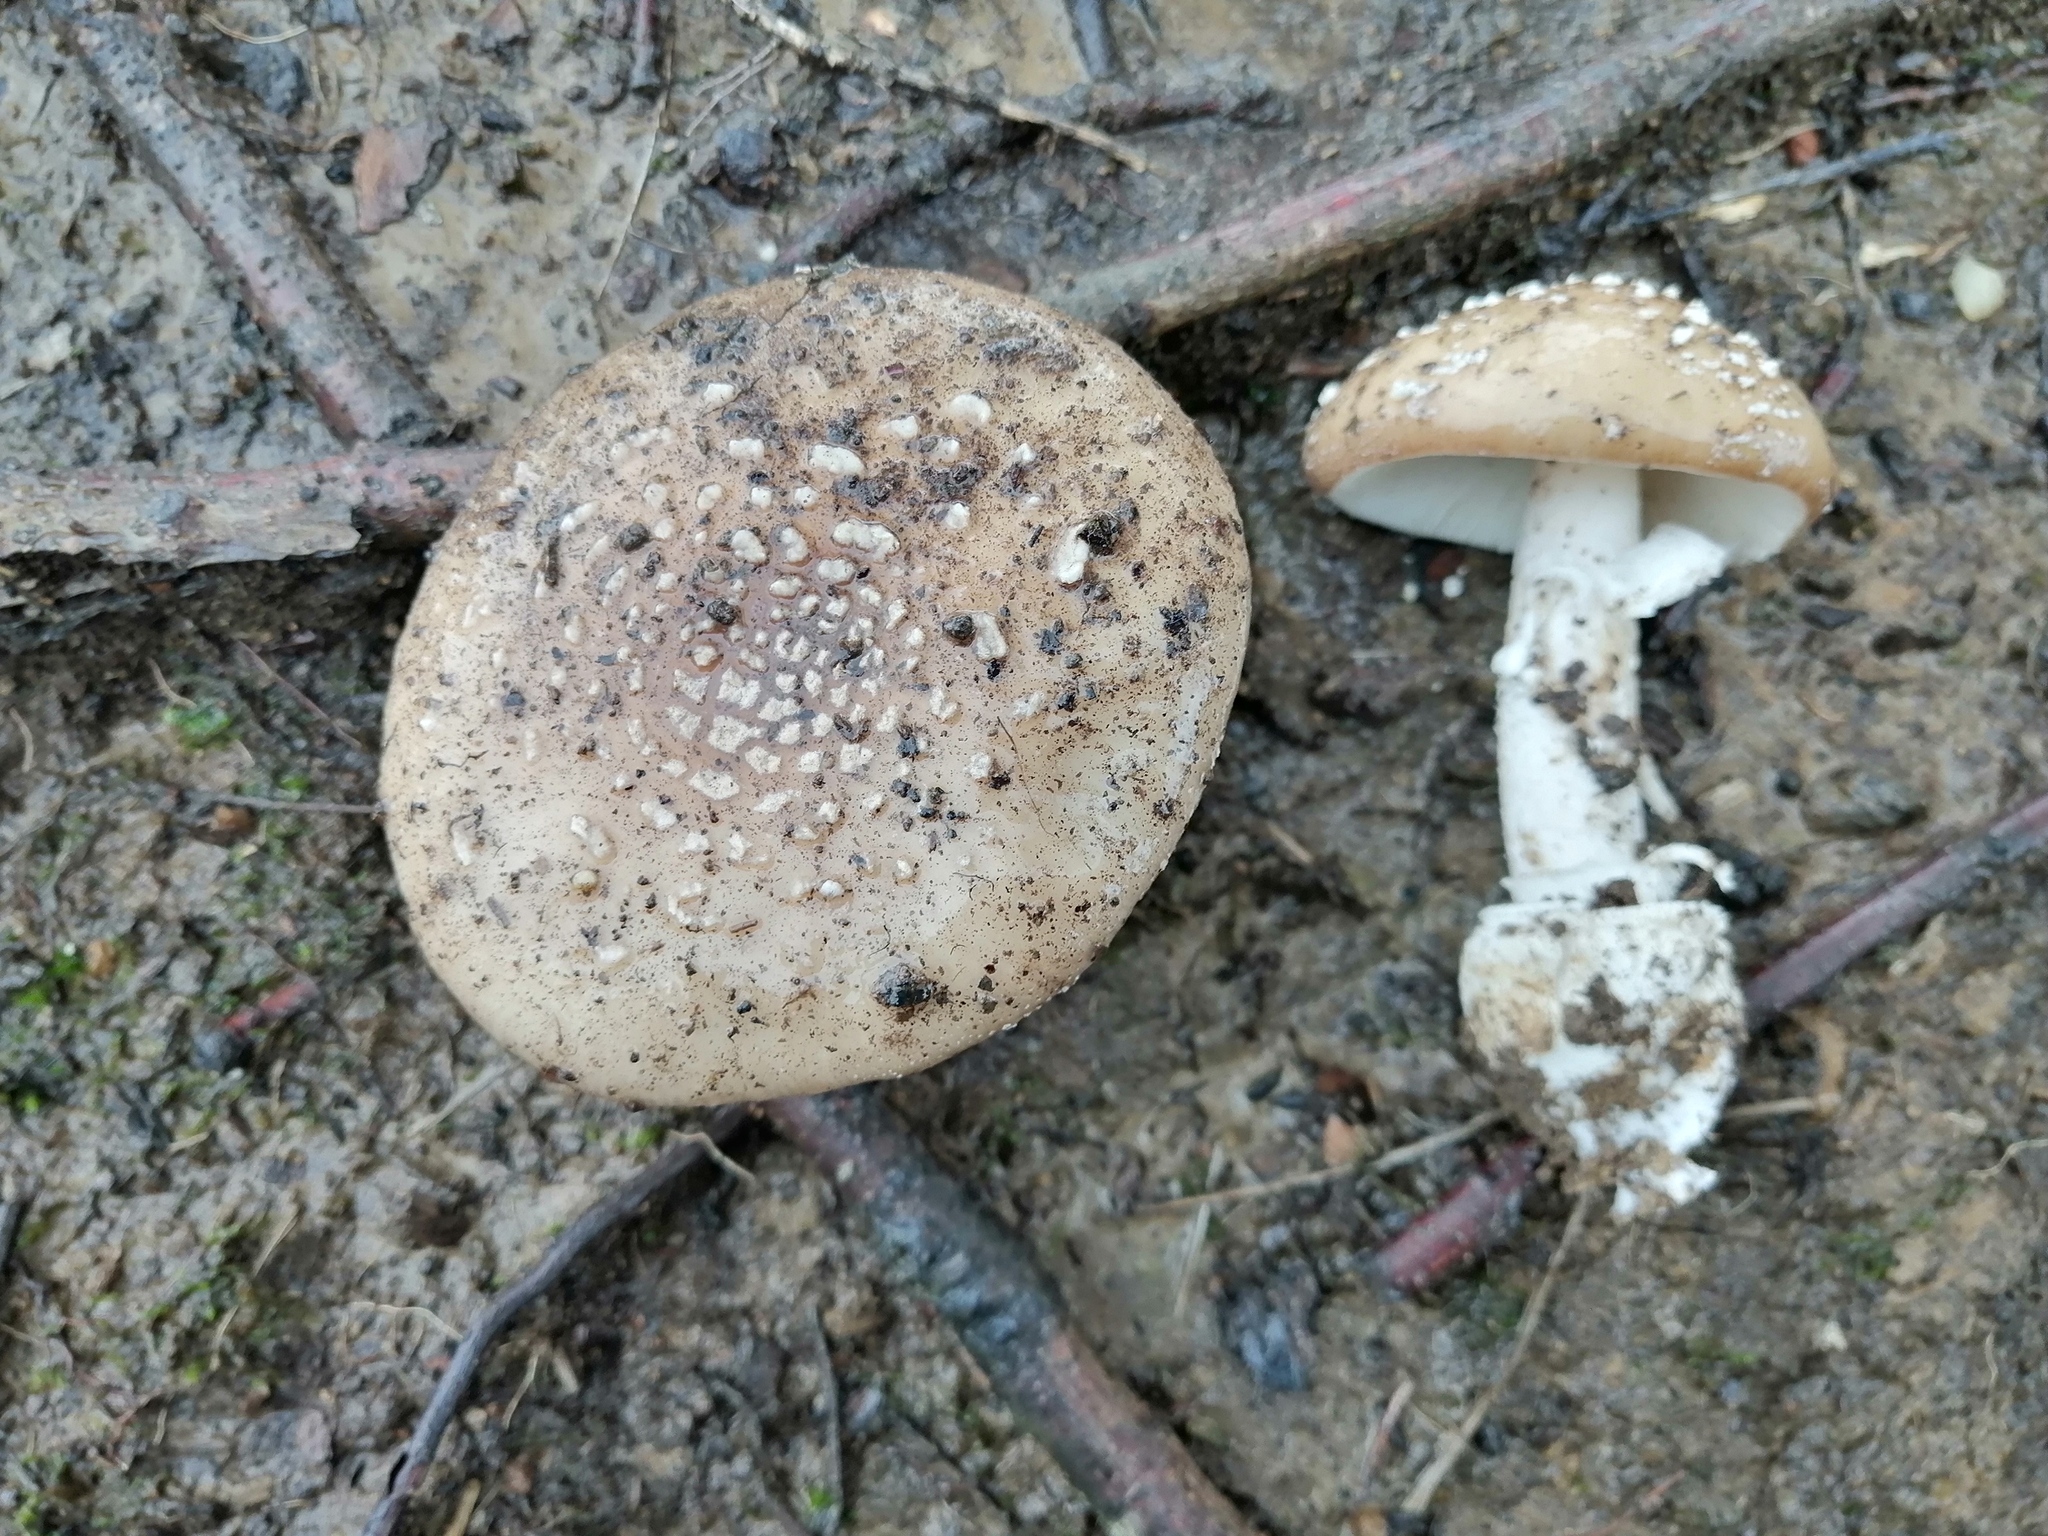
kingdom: Fungi
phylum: Basidiomycota
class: Agaricomycetes
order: Agaricales
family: Amanitaceae
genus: Amanita
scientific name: Amanita pantherina
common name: Panthercap
